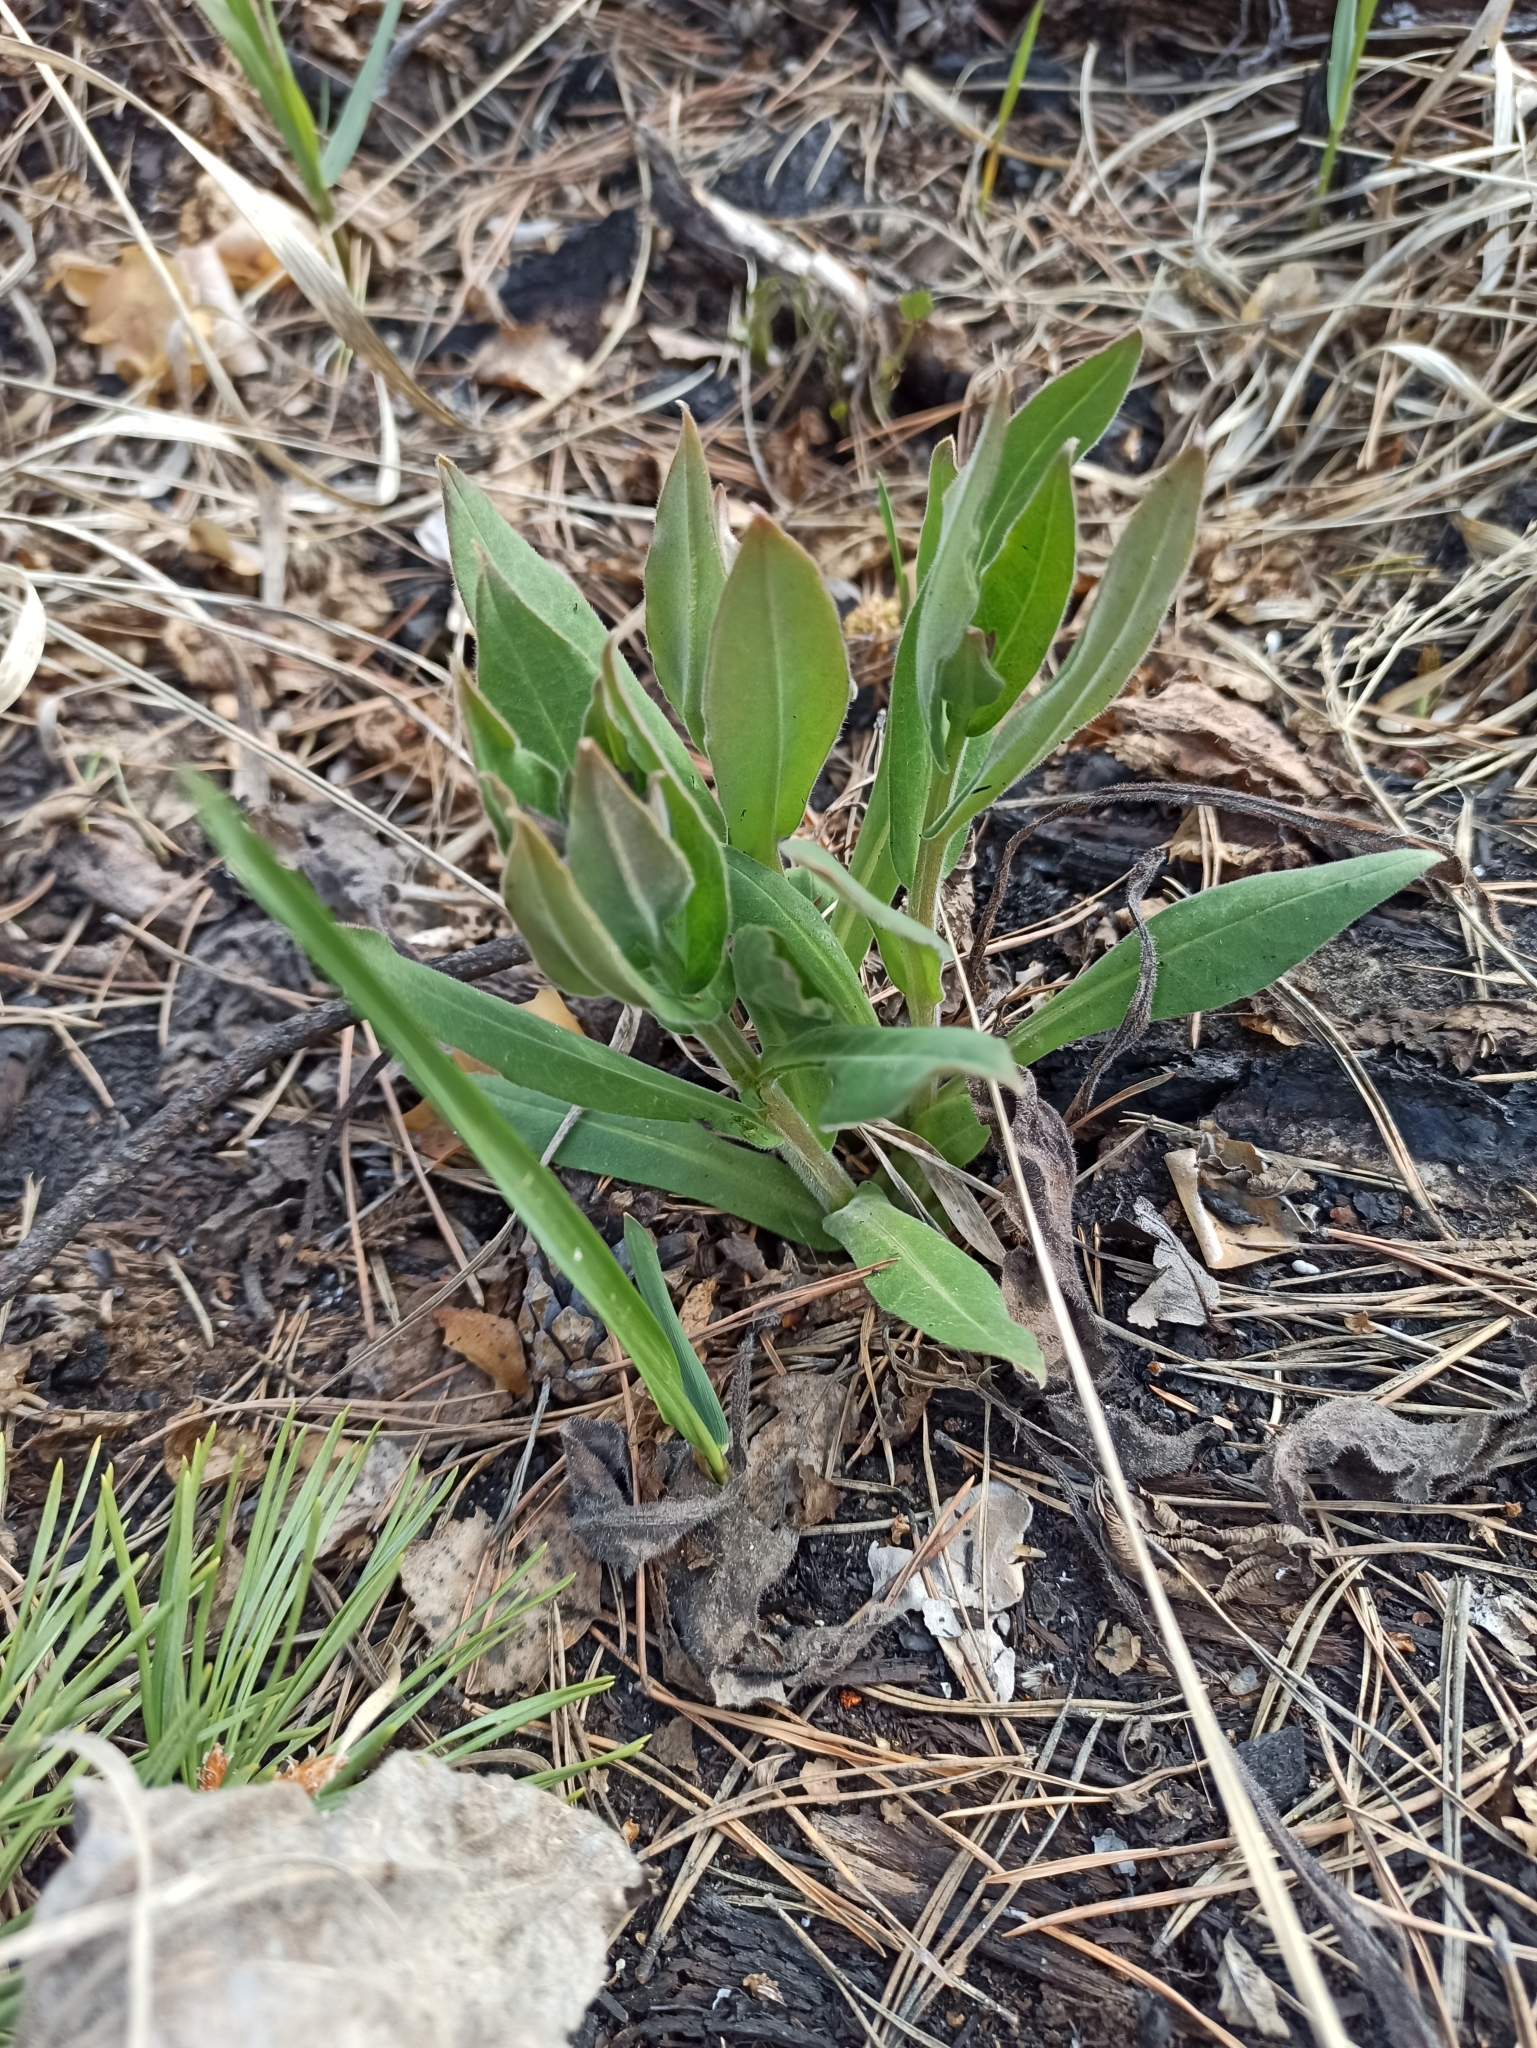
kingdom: Plantae
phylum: Tracheophyta
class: Magnoliopsida
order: Boraginales
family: Boraginaceae
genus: Pulmonaria
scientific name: Pulmonaria mollis
